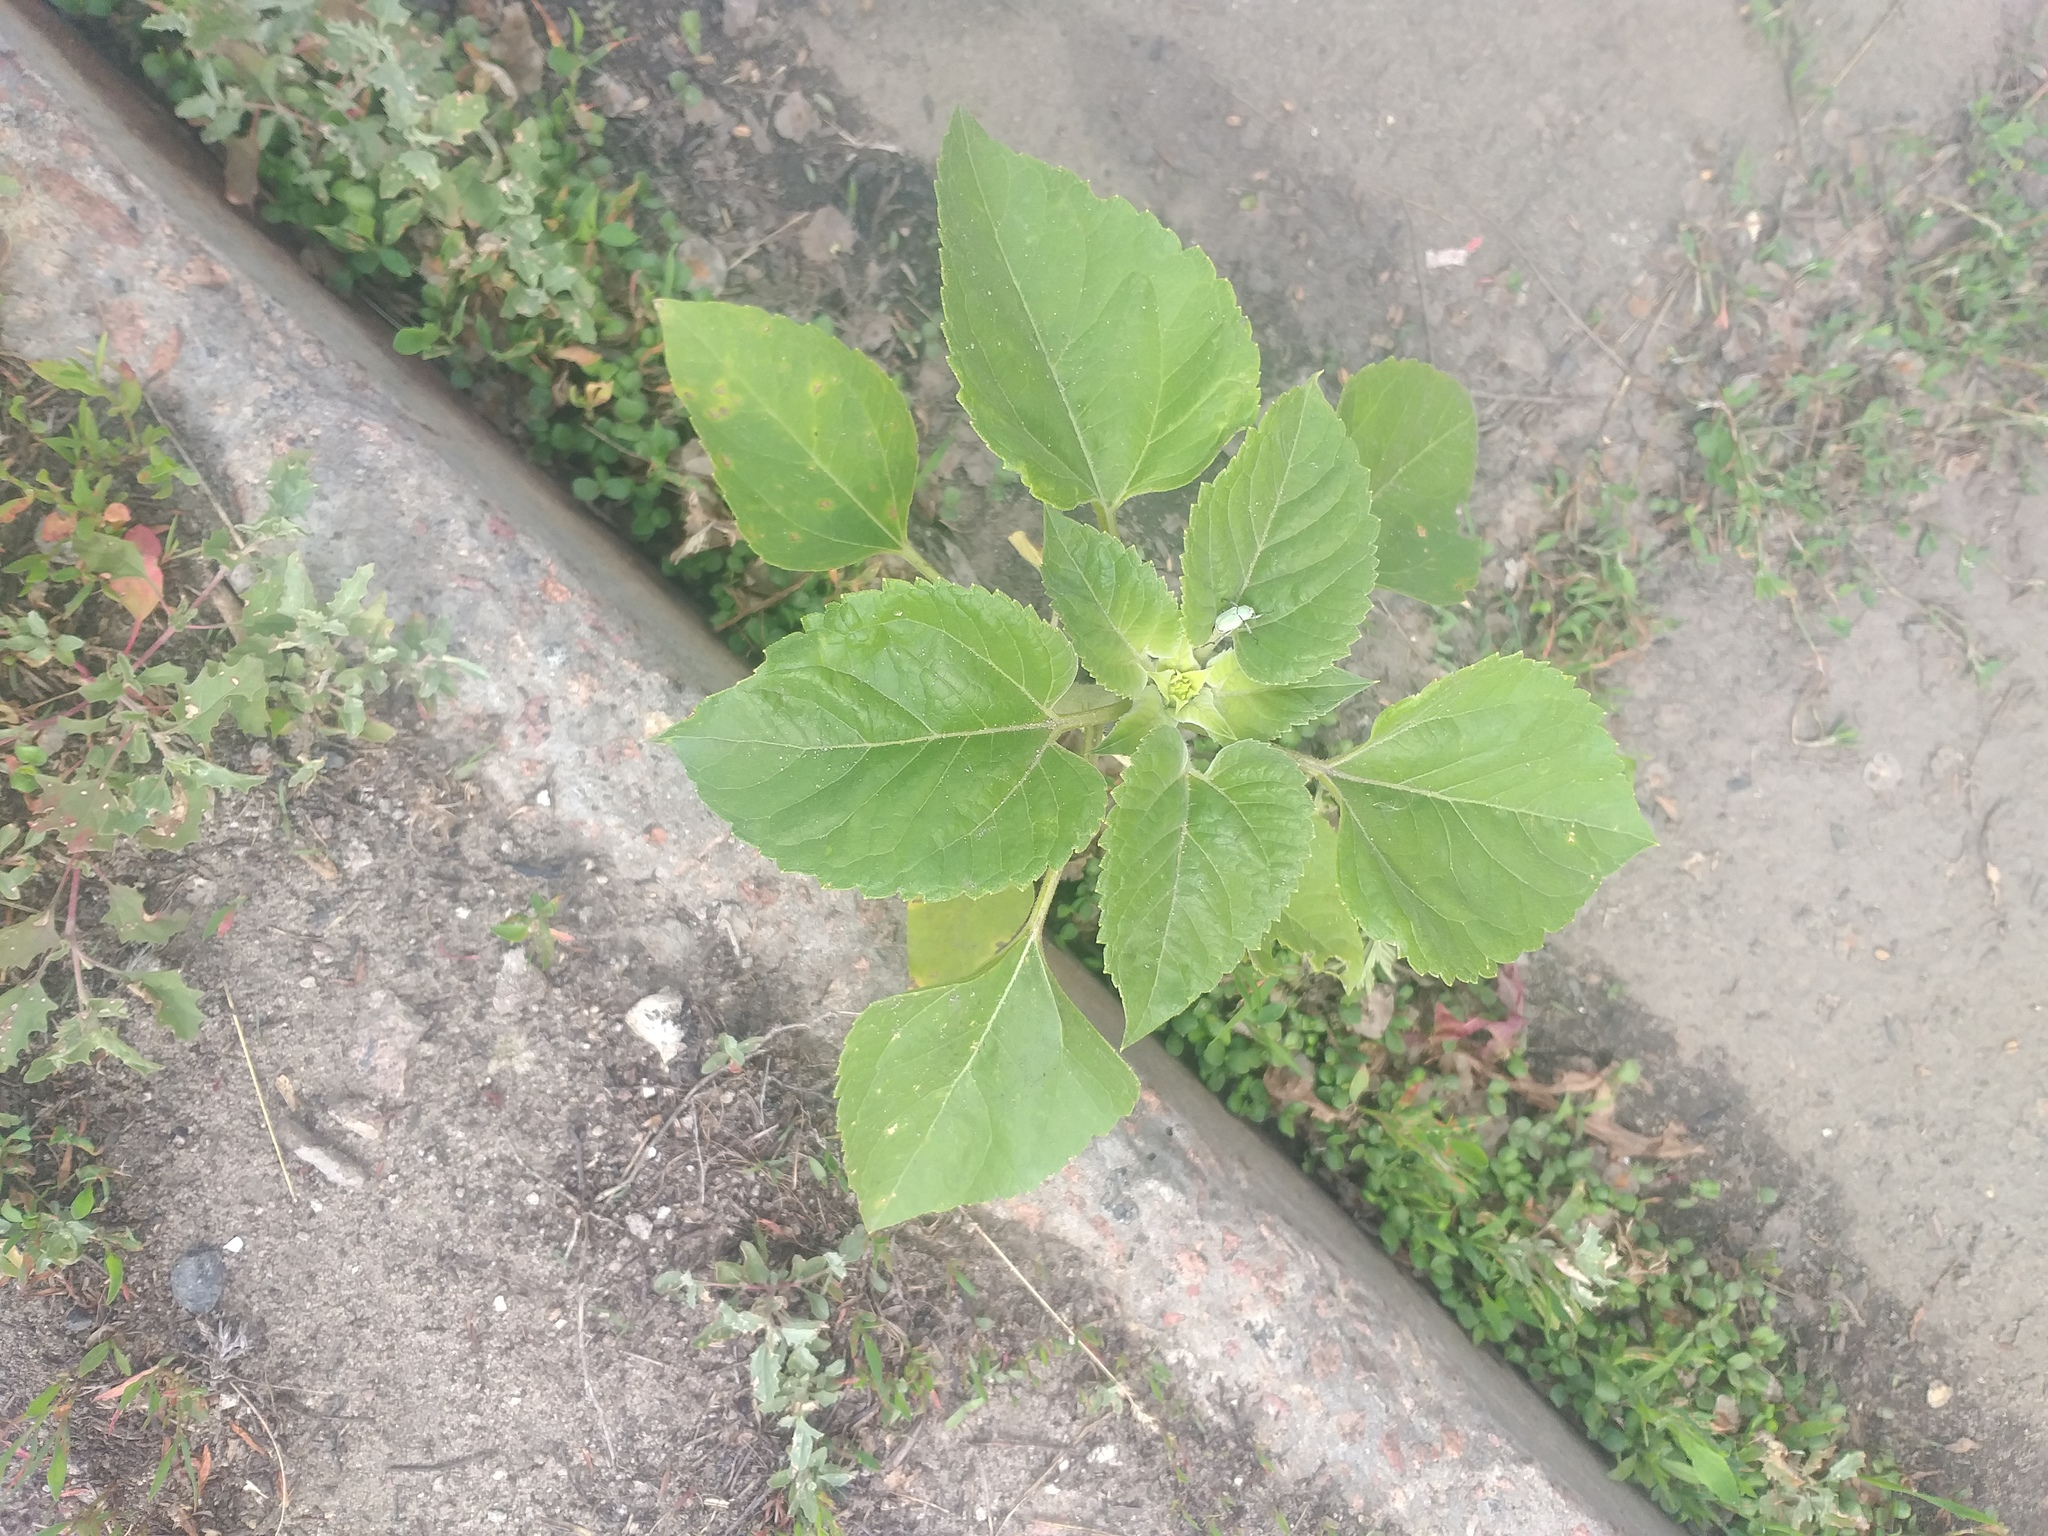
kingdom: Plantae
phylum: Tracheophyta
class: Magnoliopsida
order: Asterales
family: Asteraceae
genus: Helianthus
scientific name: Helianthus annuus
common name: Sunflower
